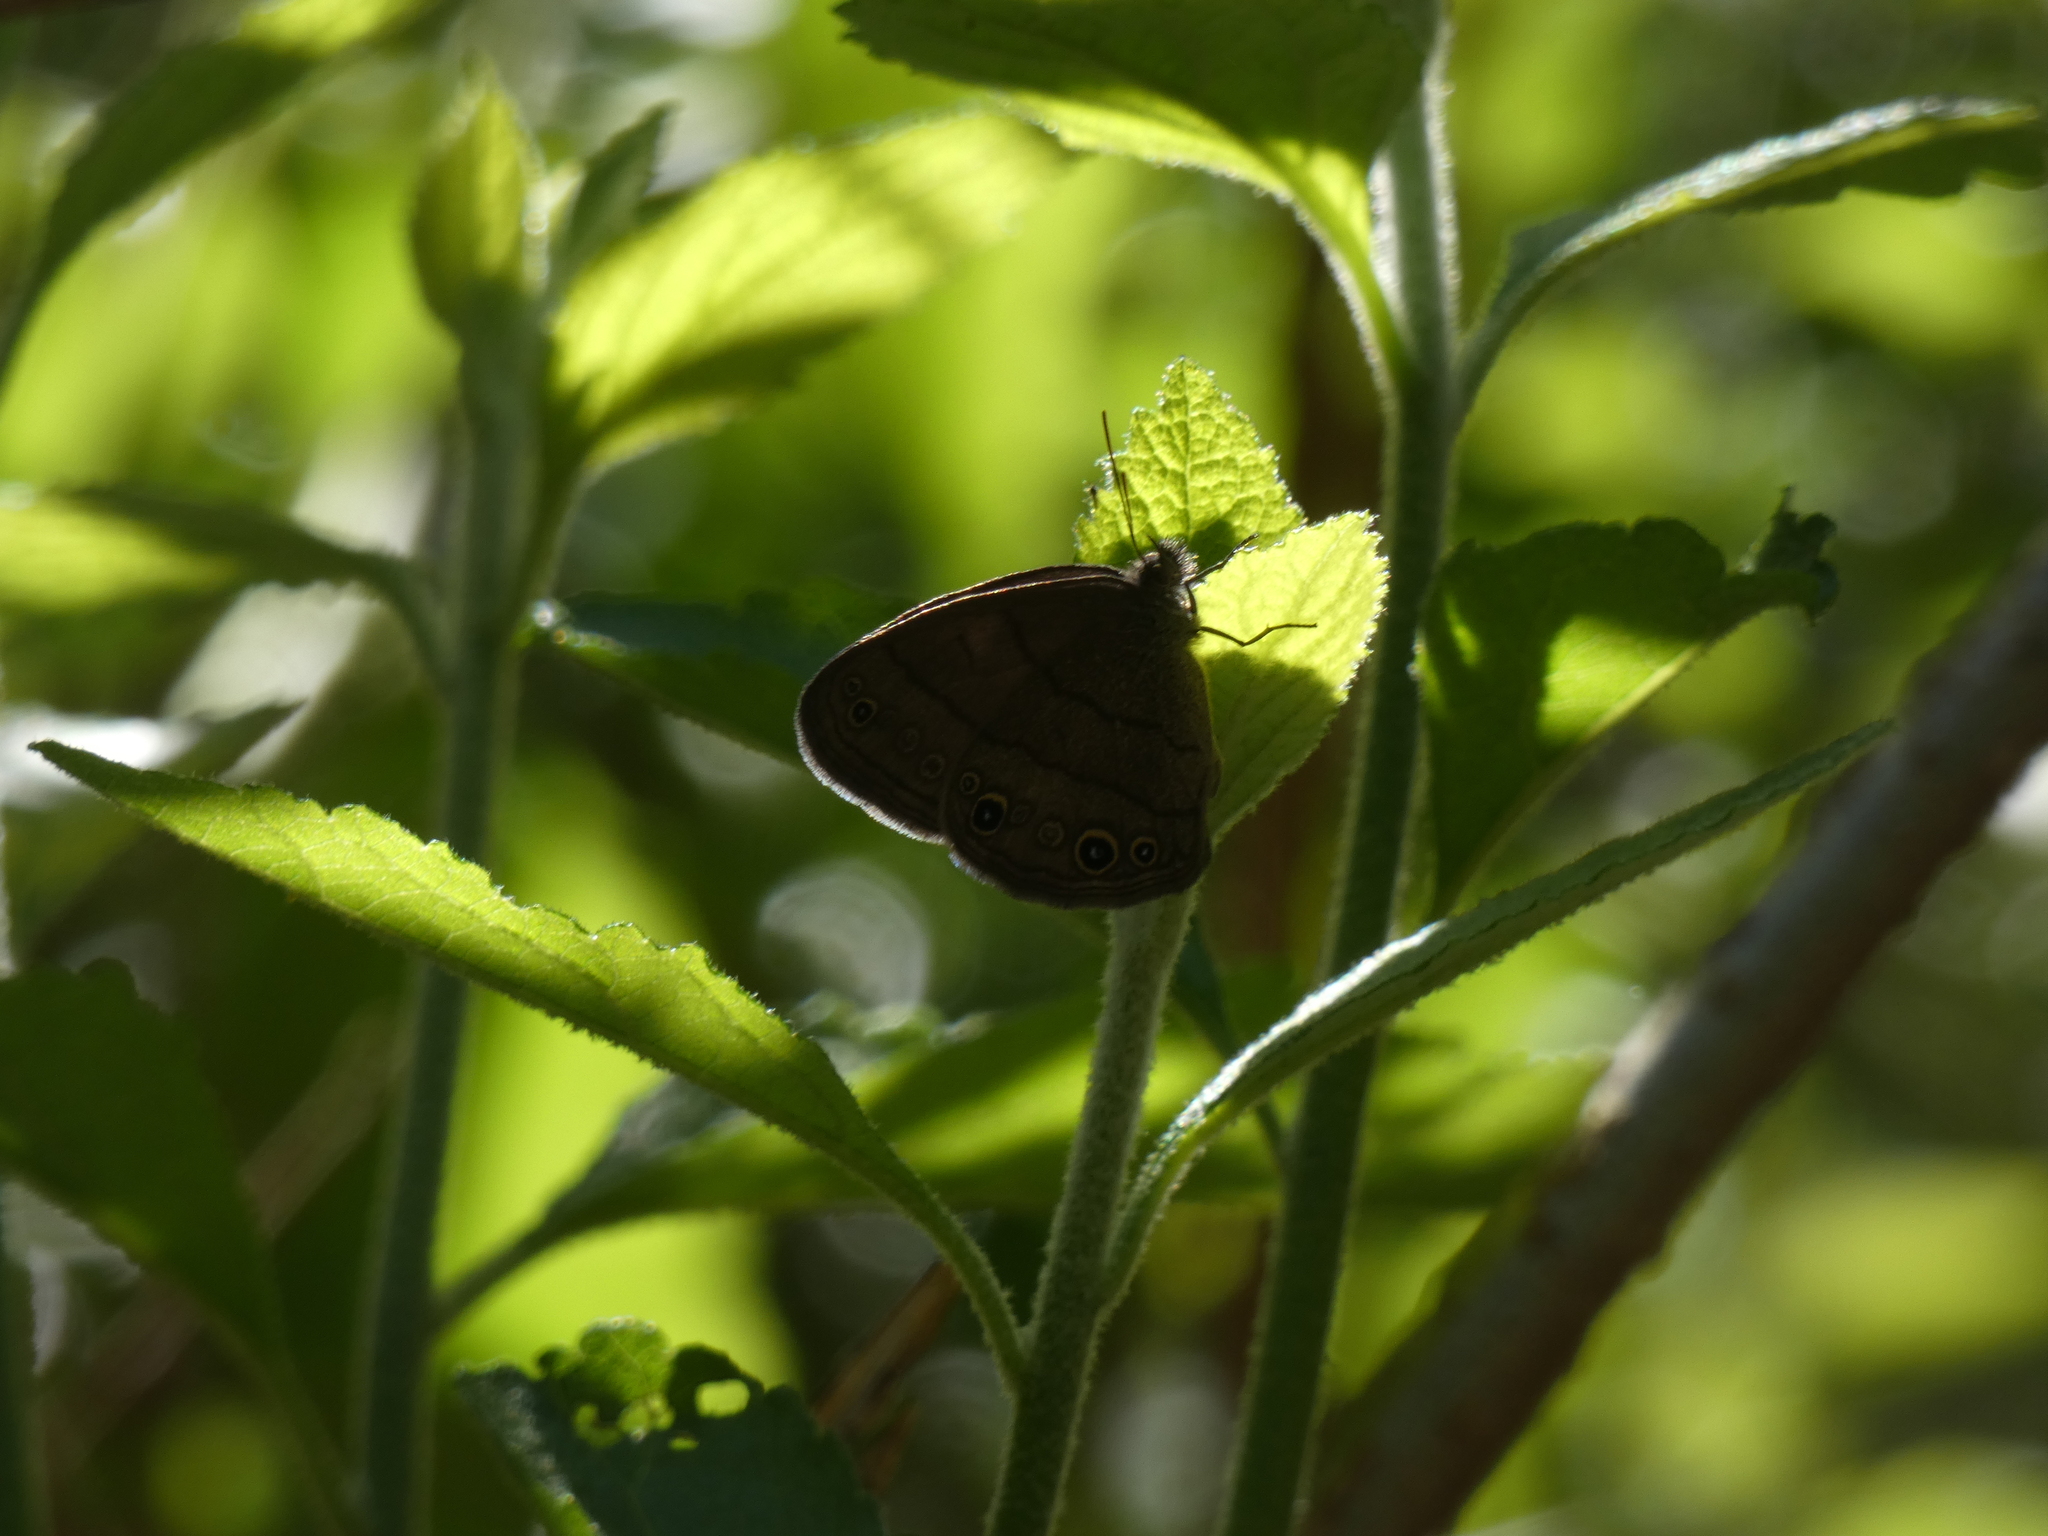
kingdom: Animalia
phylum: Arthropoda
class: Insecta
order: Lepidoptera
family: Nymphalidae
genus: Hermeuptychia
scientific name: Hermeuptychia hermes
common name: Hermes satyr
